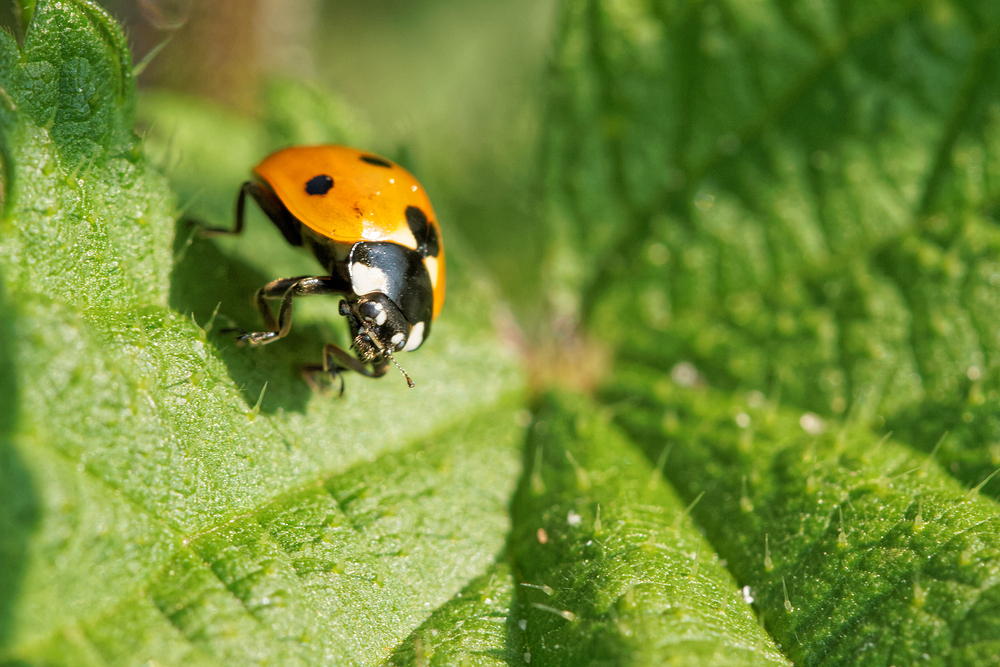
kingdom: Animalia
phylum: Arthropoda
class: Insecta
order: Coleoptera
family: Coccinellidae
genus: Coccinella
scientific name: Coccinella septempunctata
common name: Sevenspotted lady beetle
